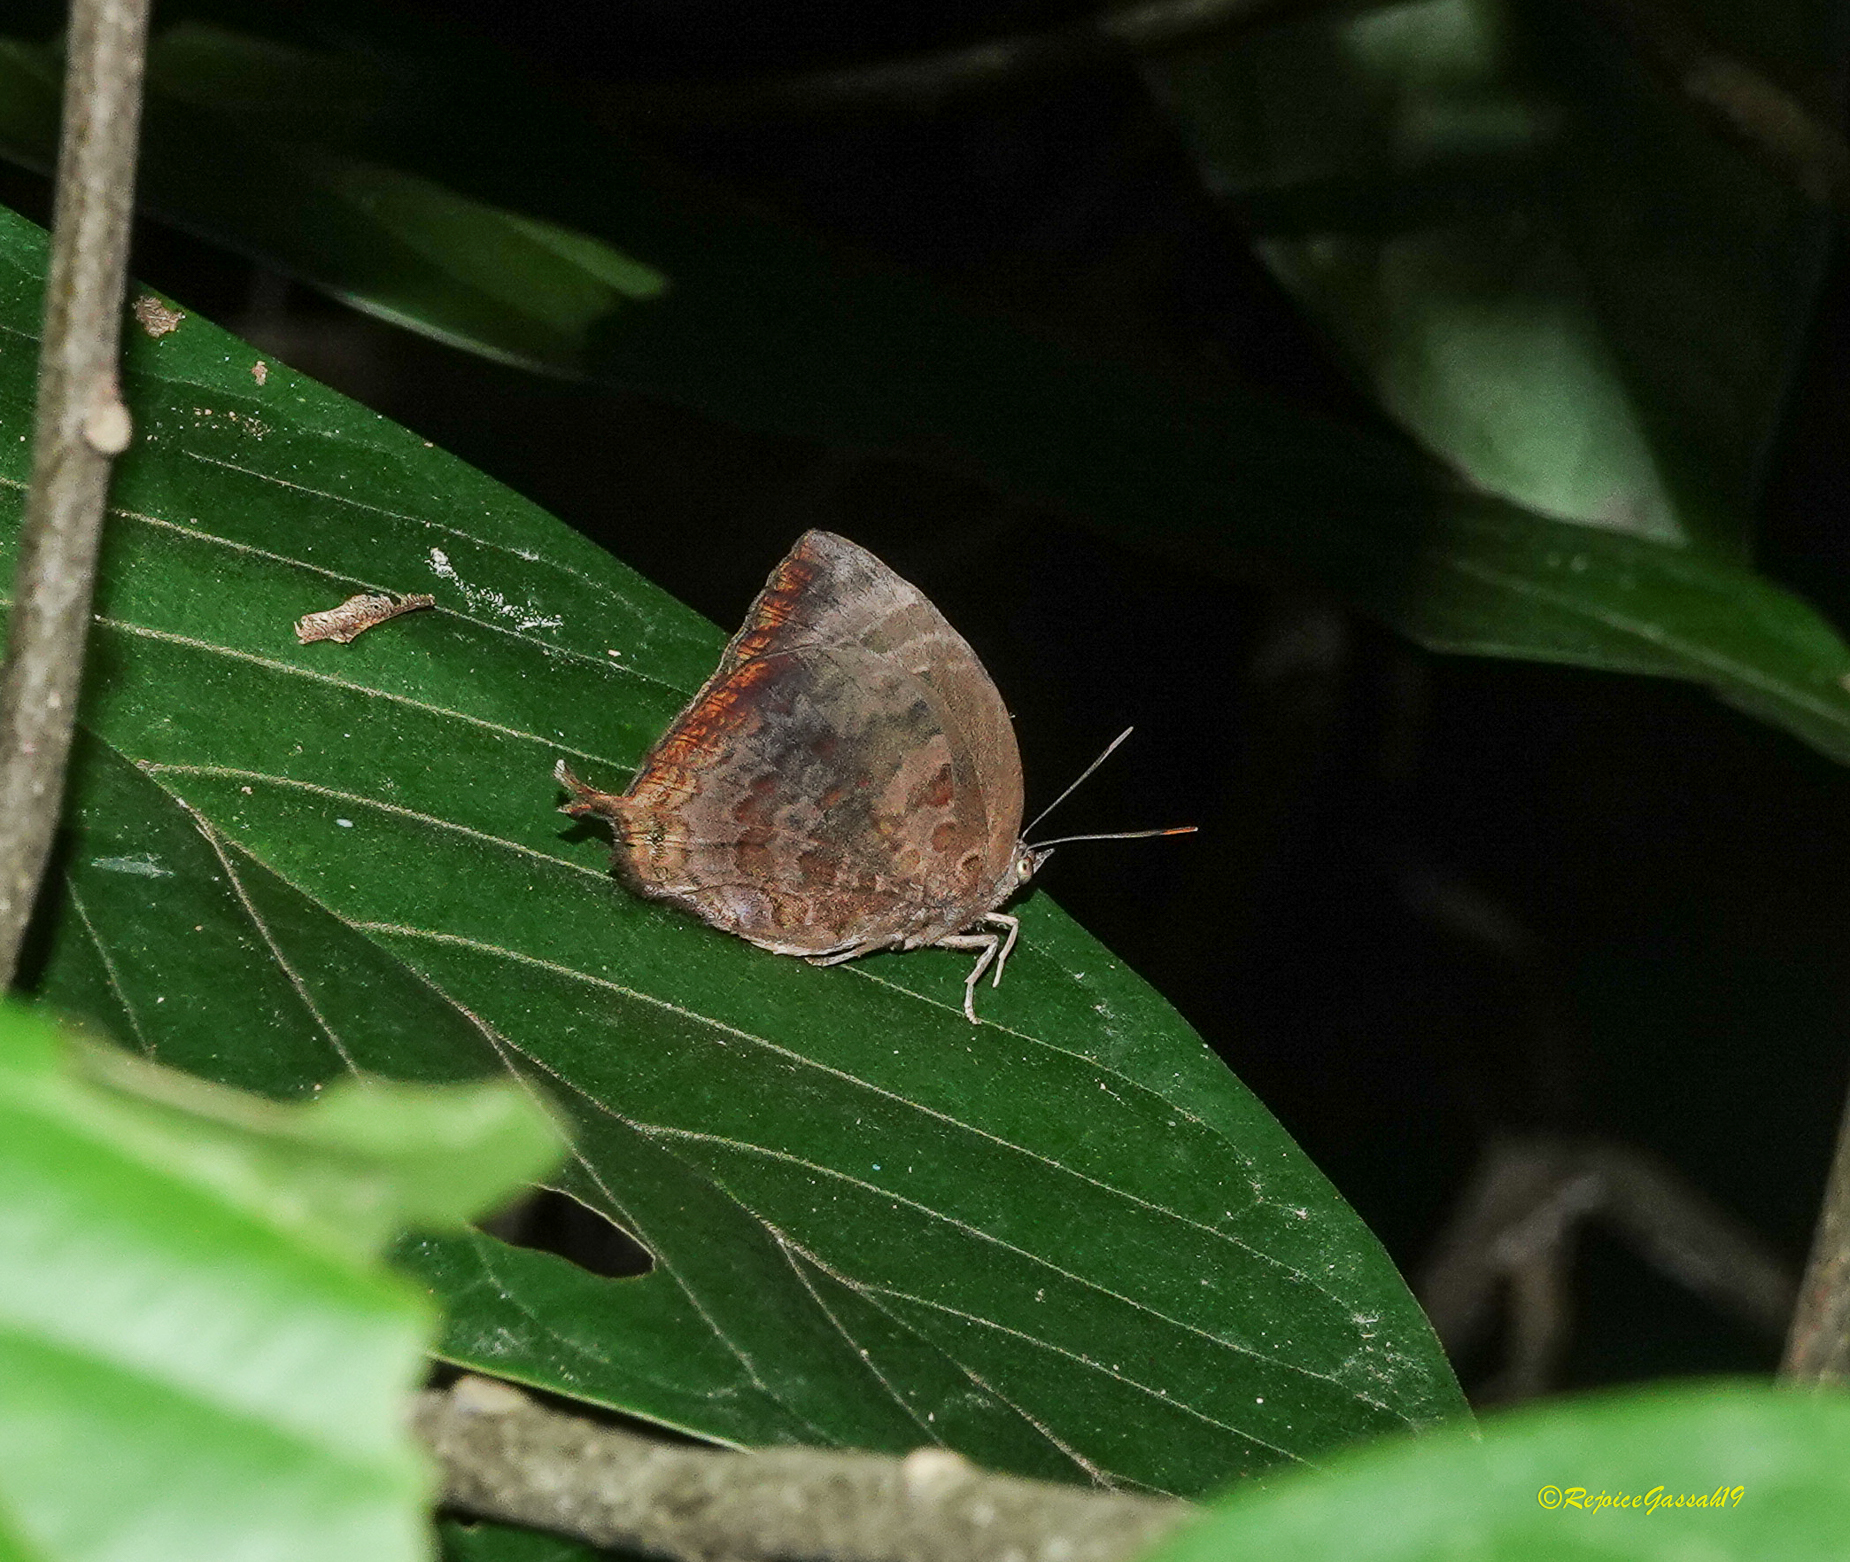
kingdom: Animalia
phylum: Arthropoda
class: Insecta
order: Lepidoptera
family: Lycaenidae
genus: Arhopala
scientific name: Arhopala centaurus
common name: Dull oak-blue
